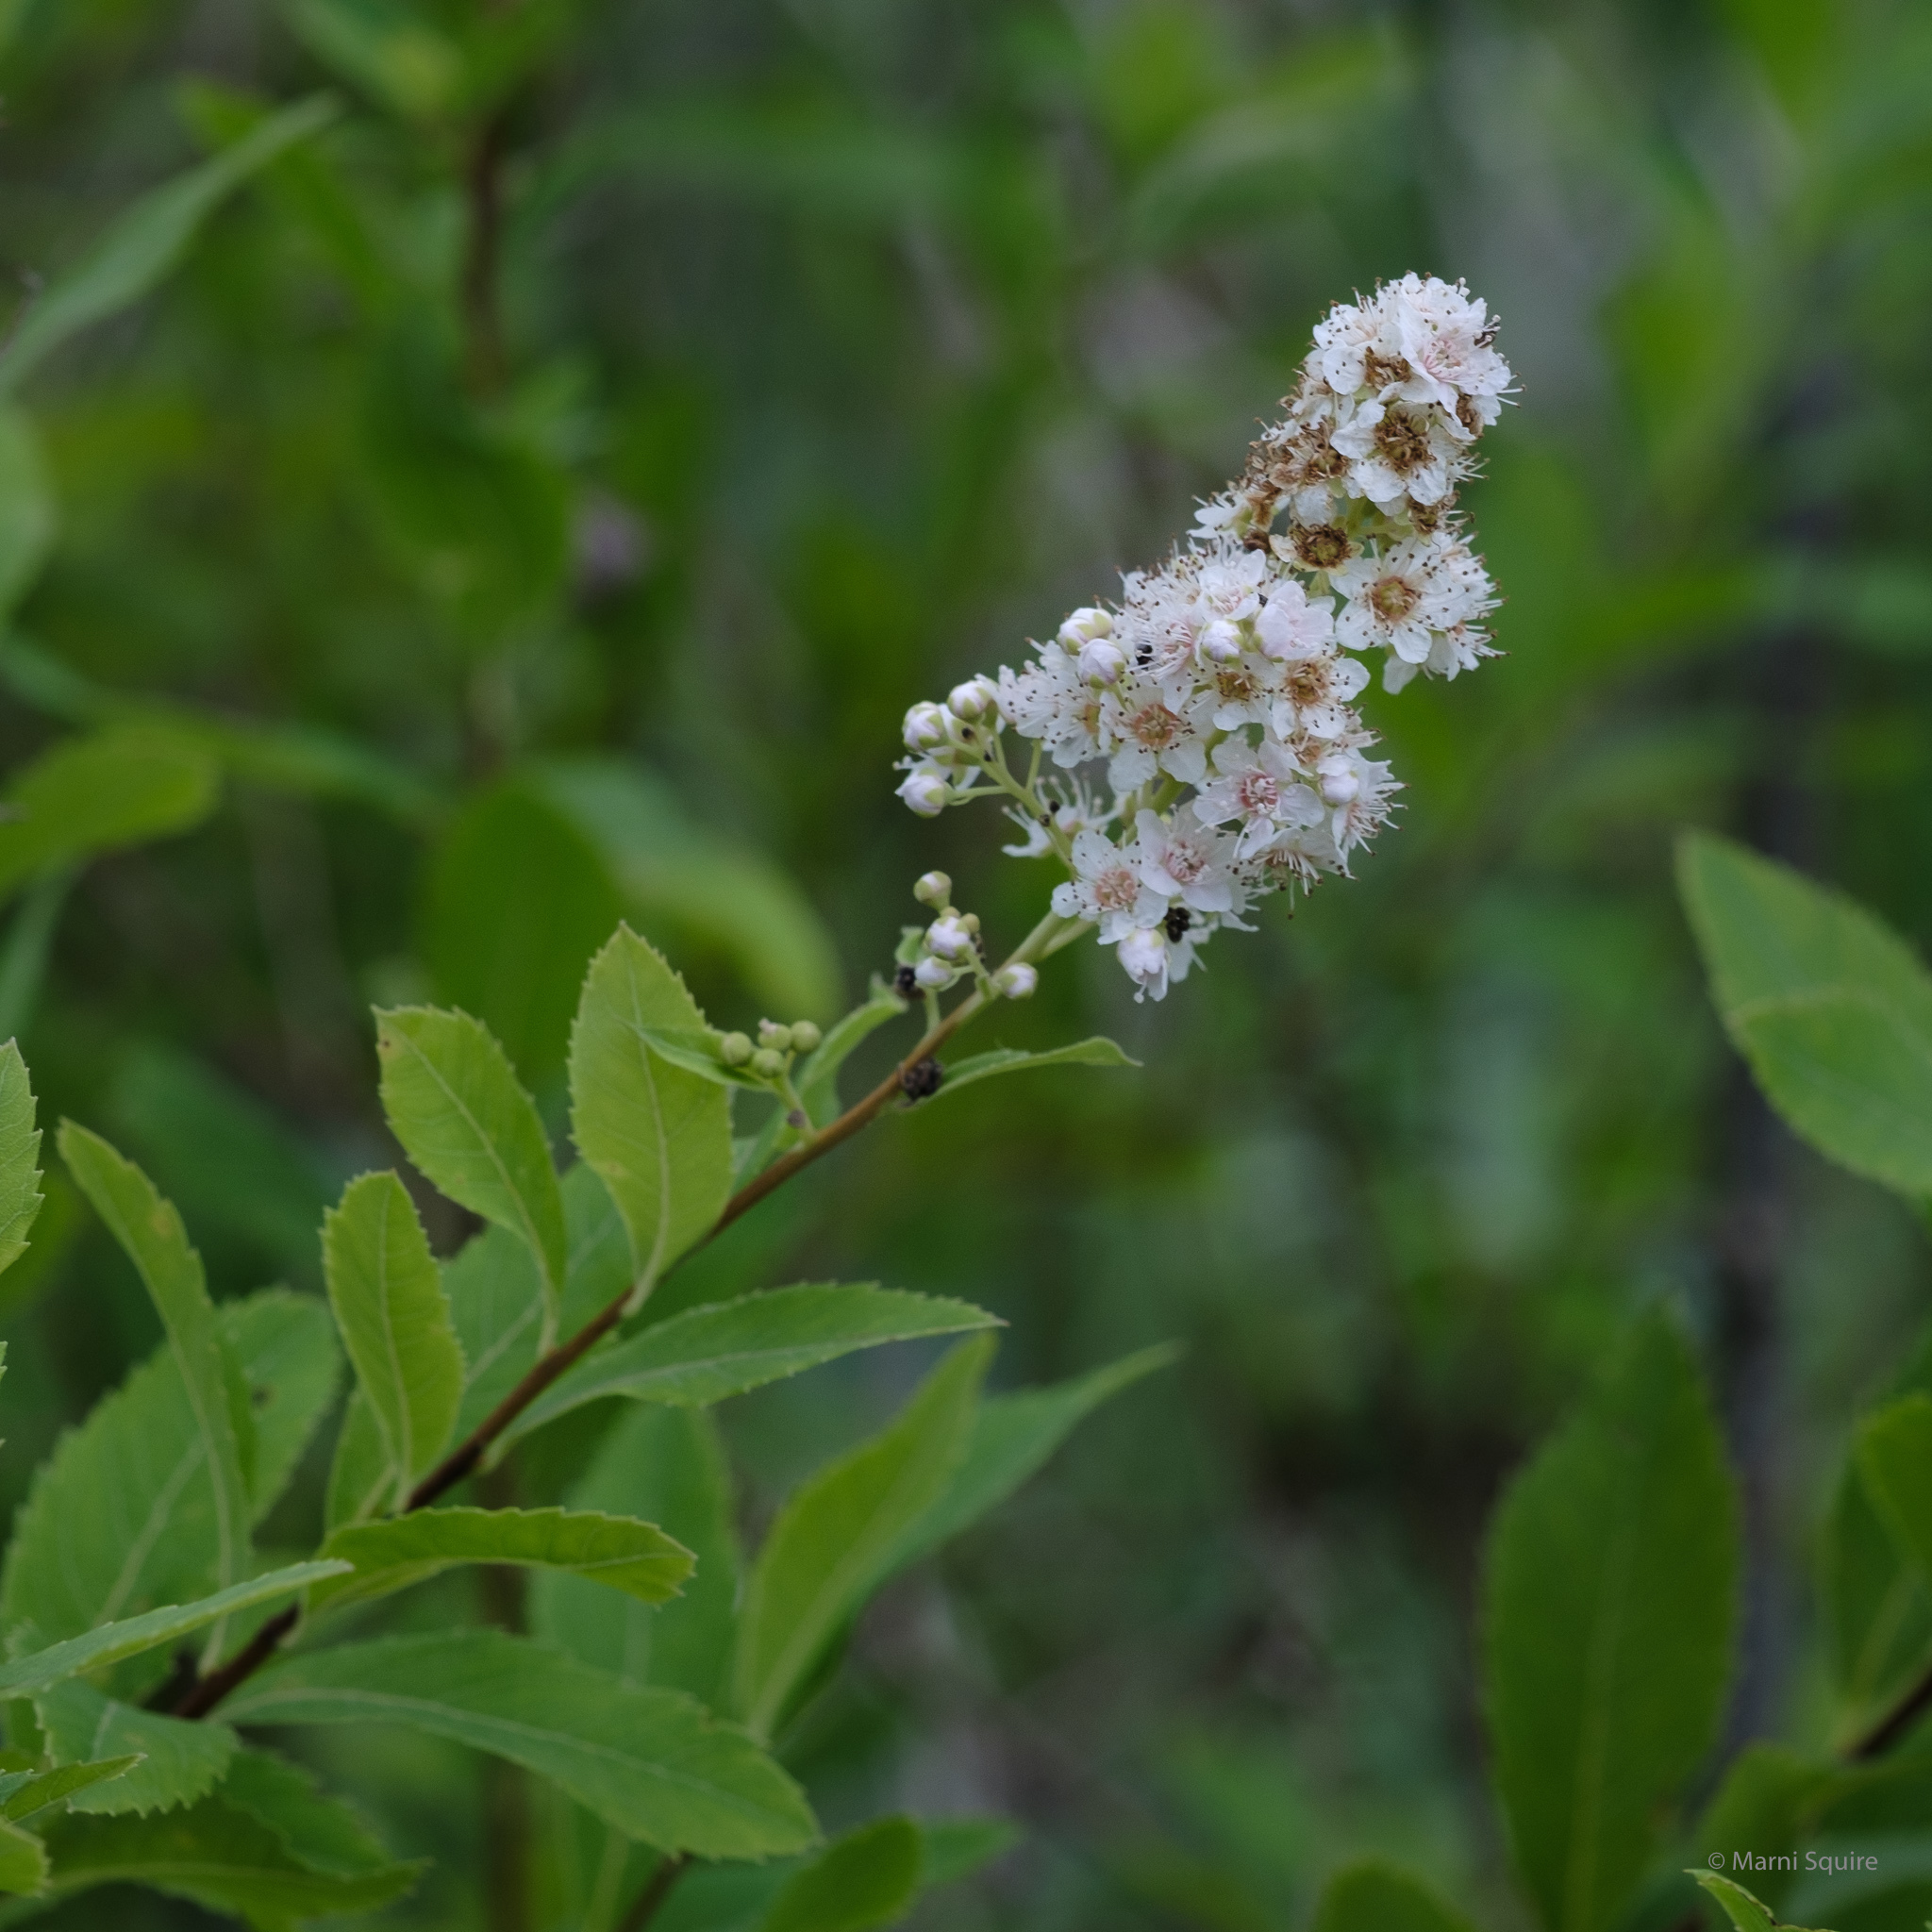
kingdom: Plantae
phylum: Tracheophyta
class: Magnoliopsida
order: Rosales
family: Rosaceae
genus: Spiraea
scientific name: Spiraea alba
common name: Pale bridewort
